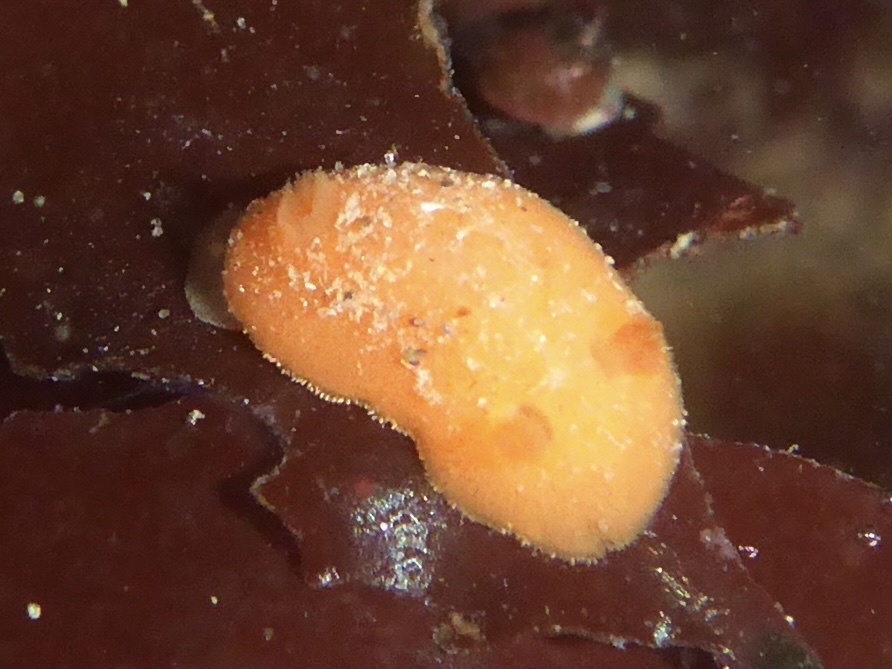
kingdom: Animalia
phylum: Mollusca
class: Gastropoda
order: Nudibranchia
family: Discodorididae
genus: Rostanga
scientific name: Rostanga pulchra
